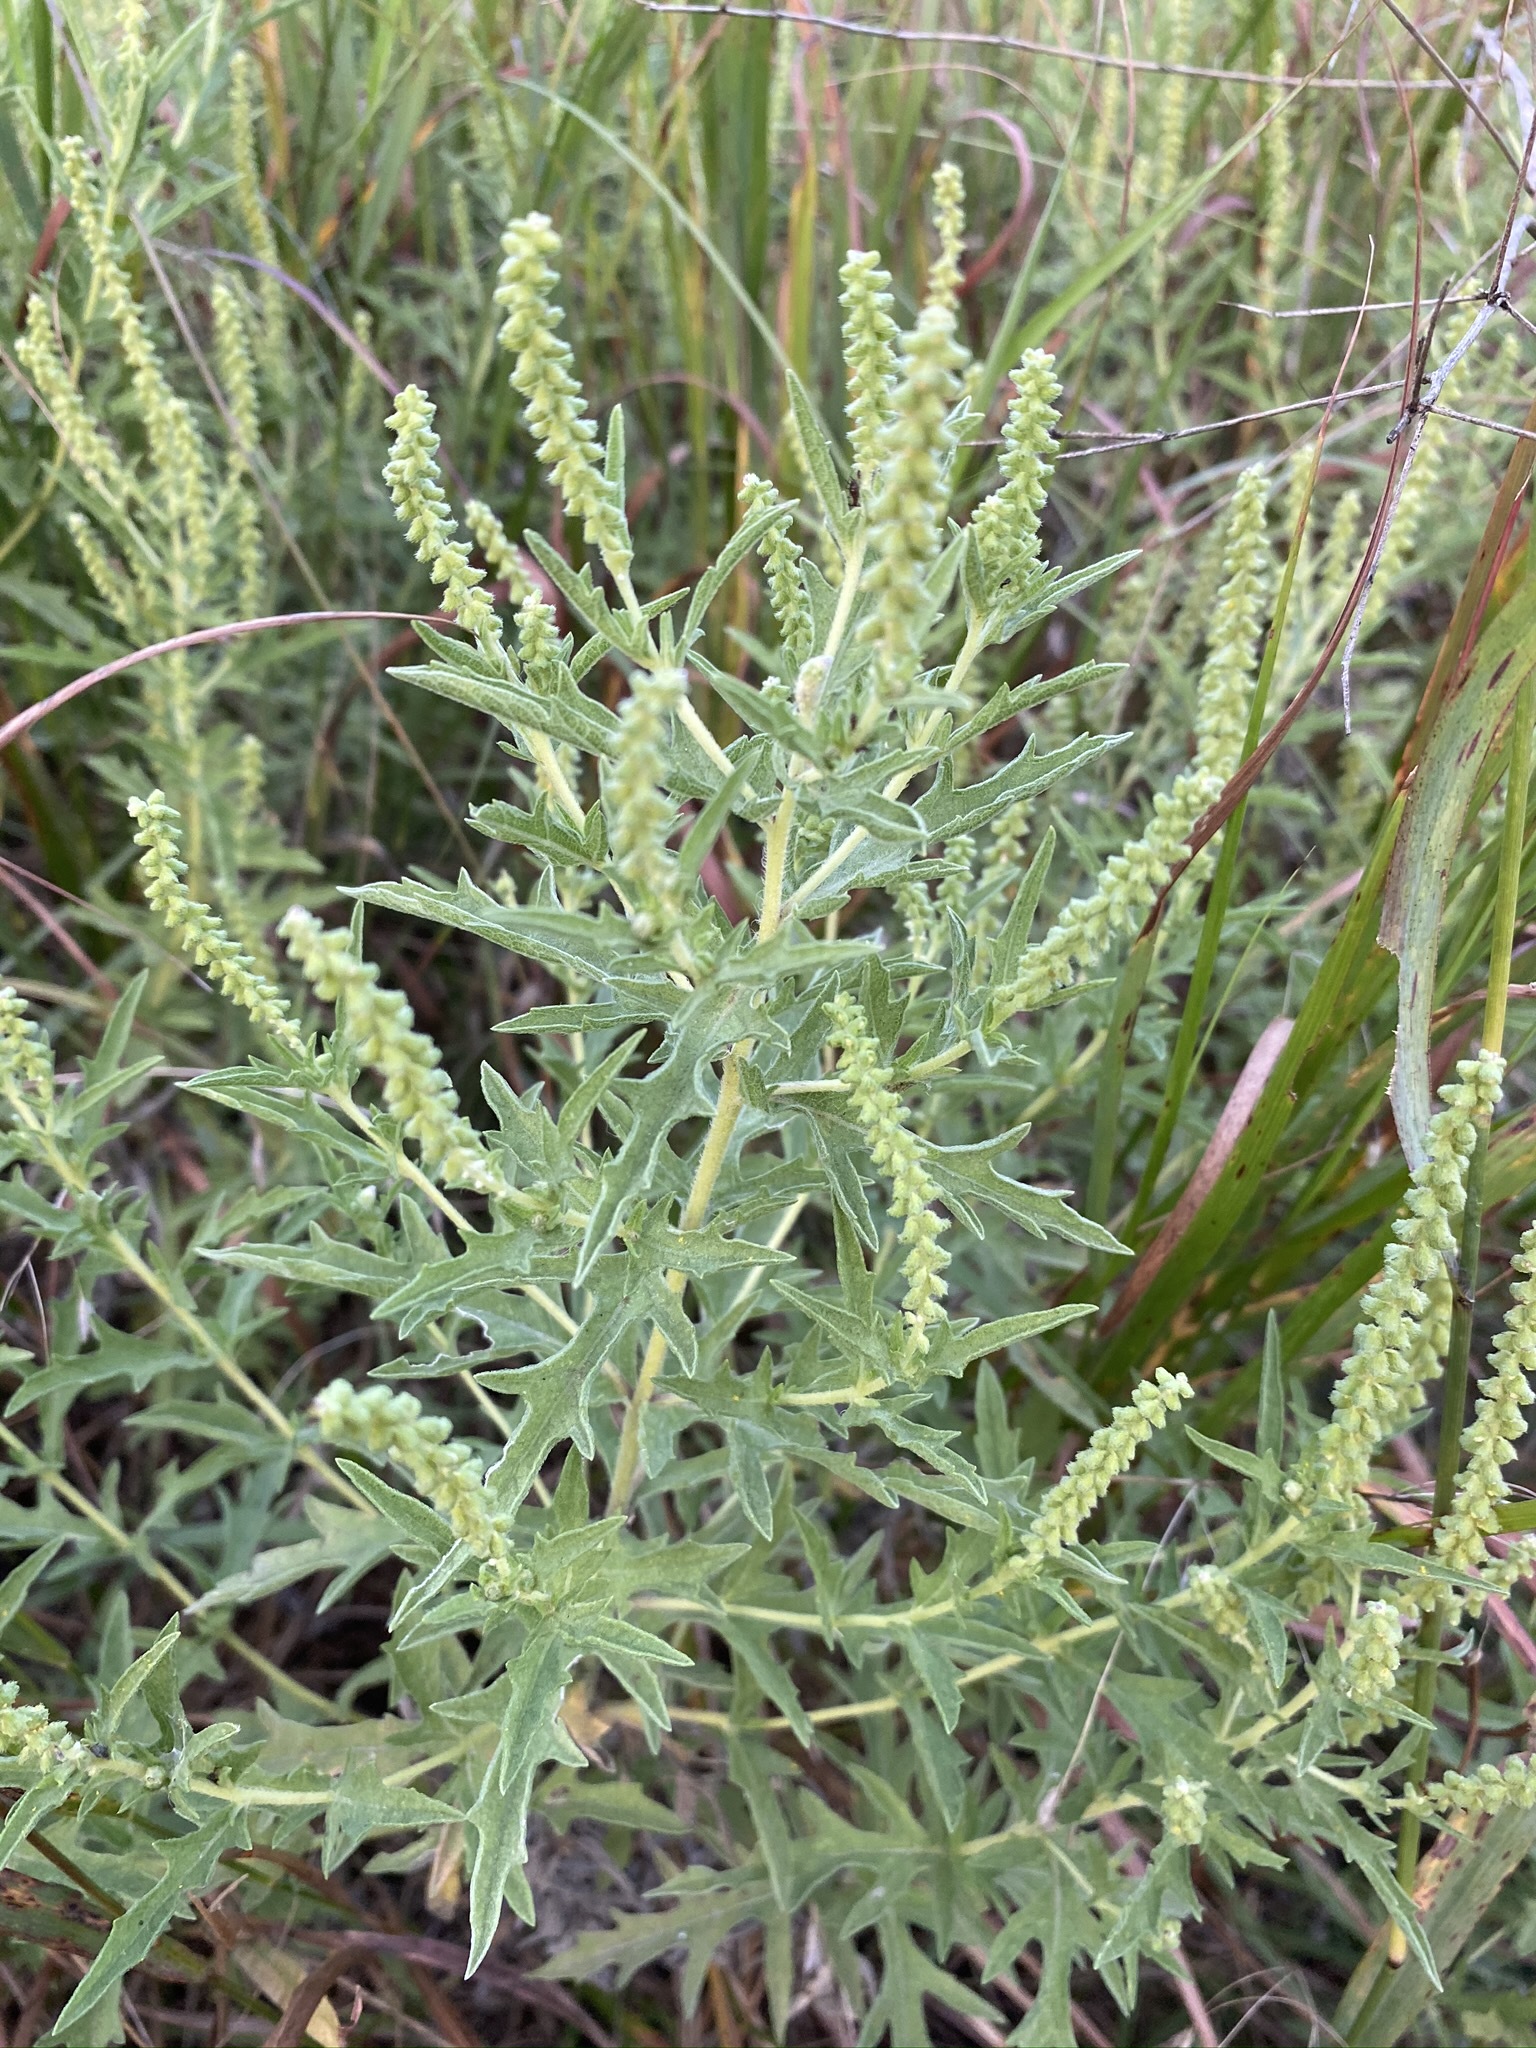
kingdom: Plantae
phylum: Tracheophyta
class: Magnoliopsida
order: Asterales
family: Asteraceae
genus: Ambrosia
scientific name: Ambrosia psilostachya
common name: Perennial ragweed
